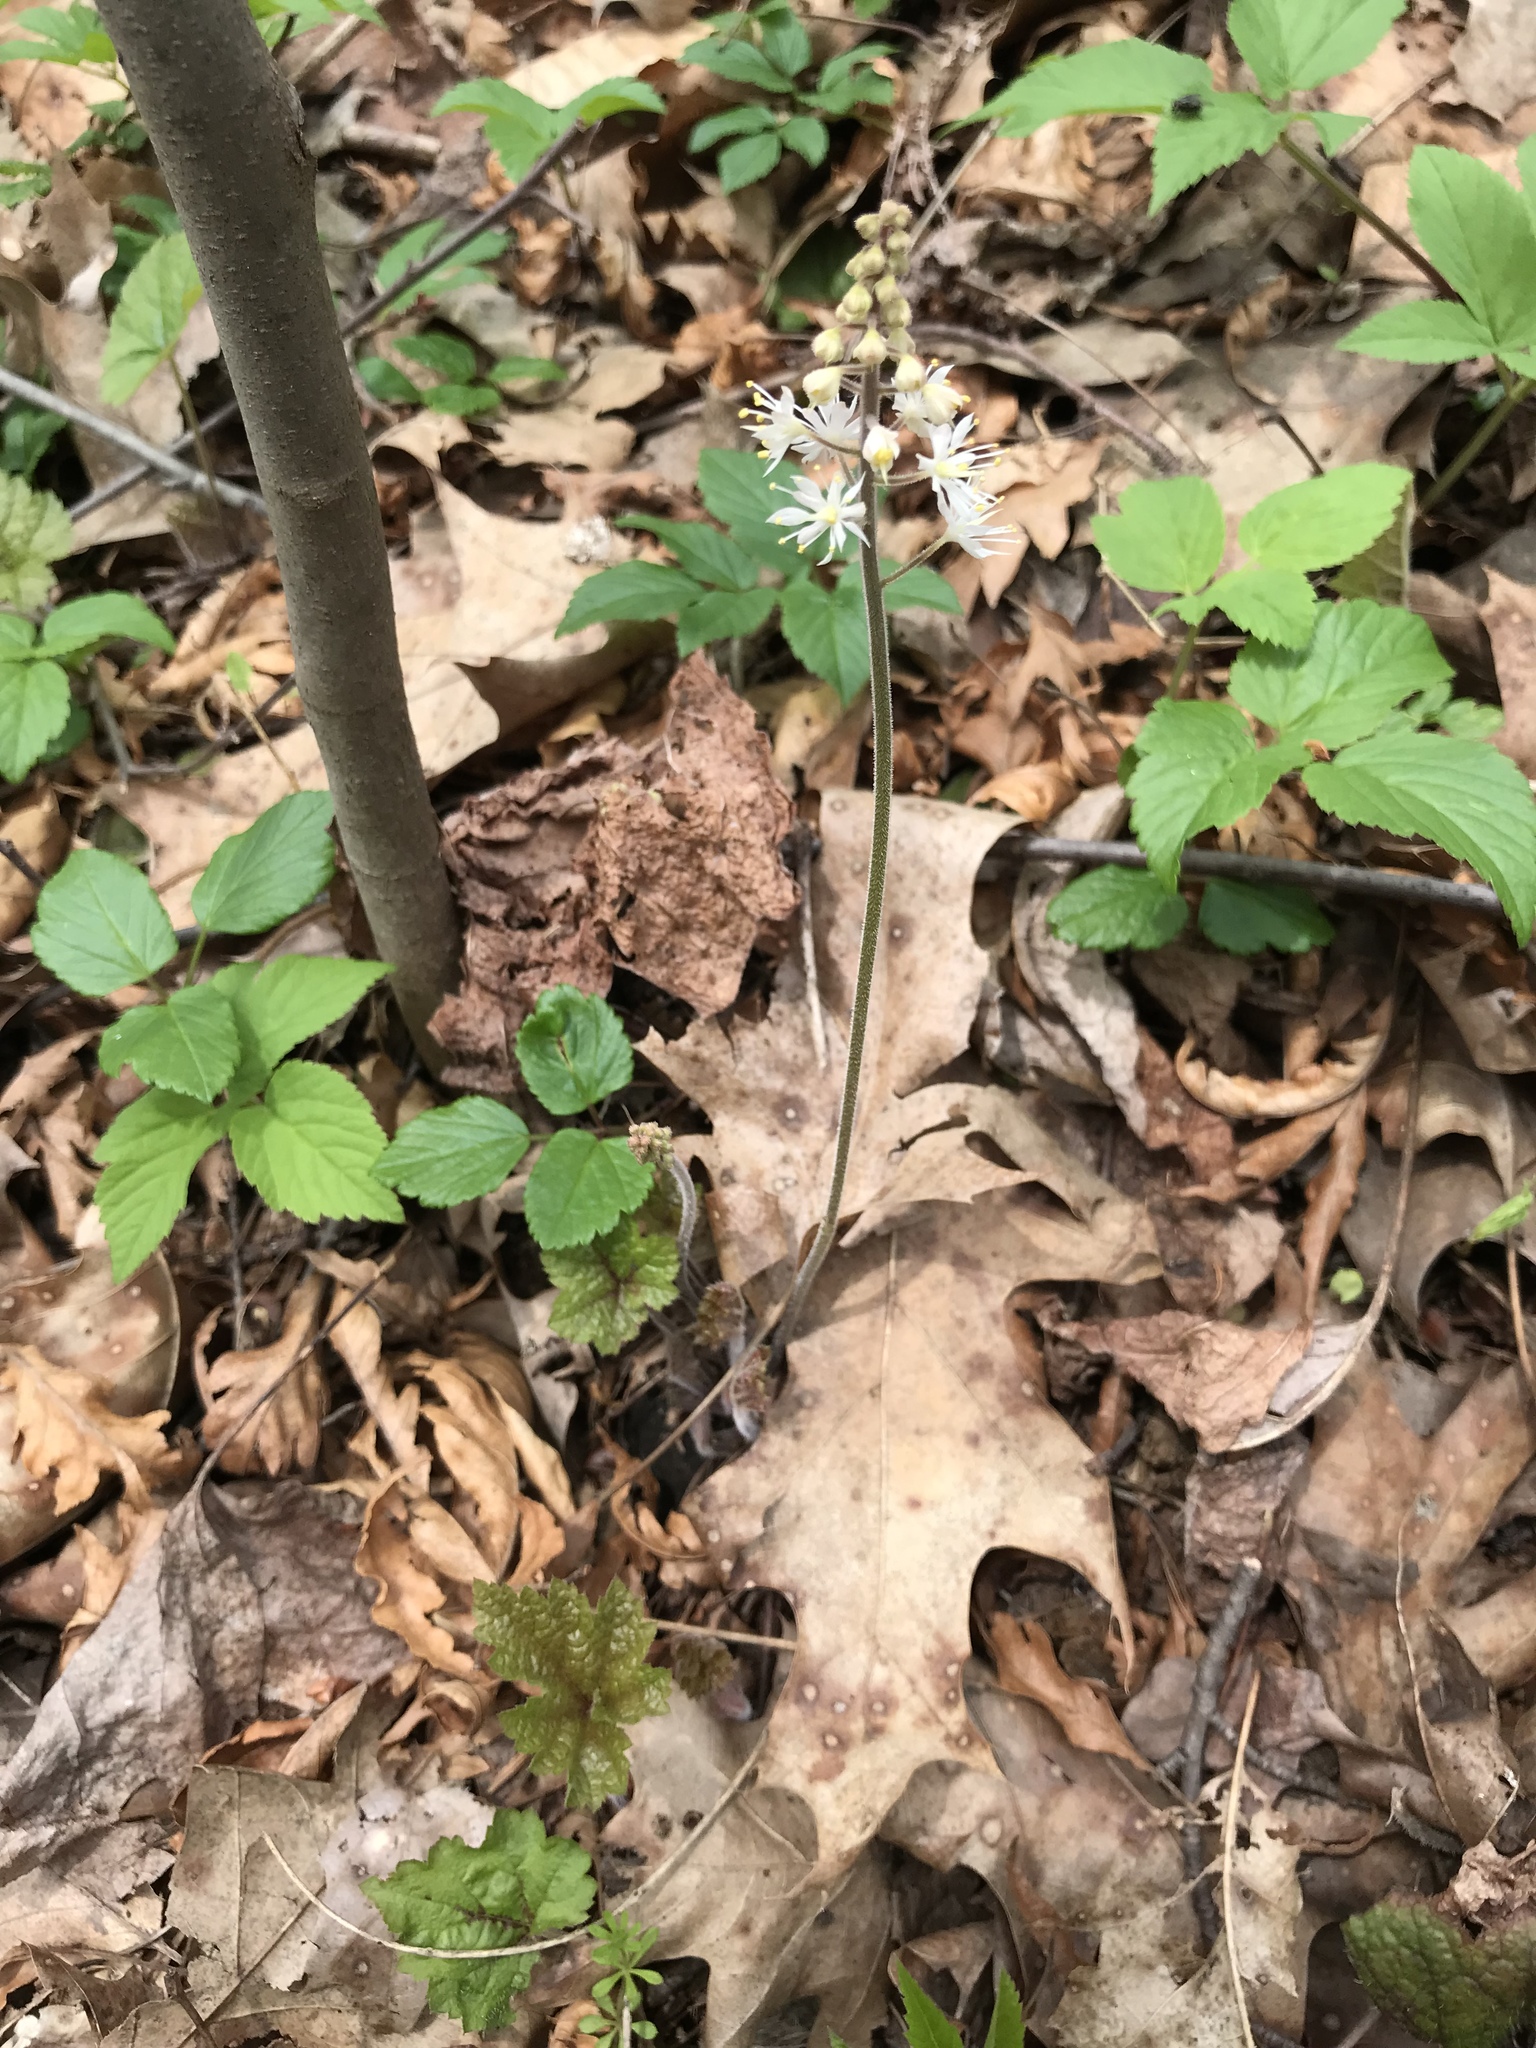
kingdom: Plantae
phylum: Tracheophyta
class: Magnoliopsida
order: Saxifragales
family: Saxifragaceae
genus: Tiarella
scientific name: Tiarella stolonifera
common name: Stoloniferous foamflower
